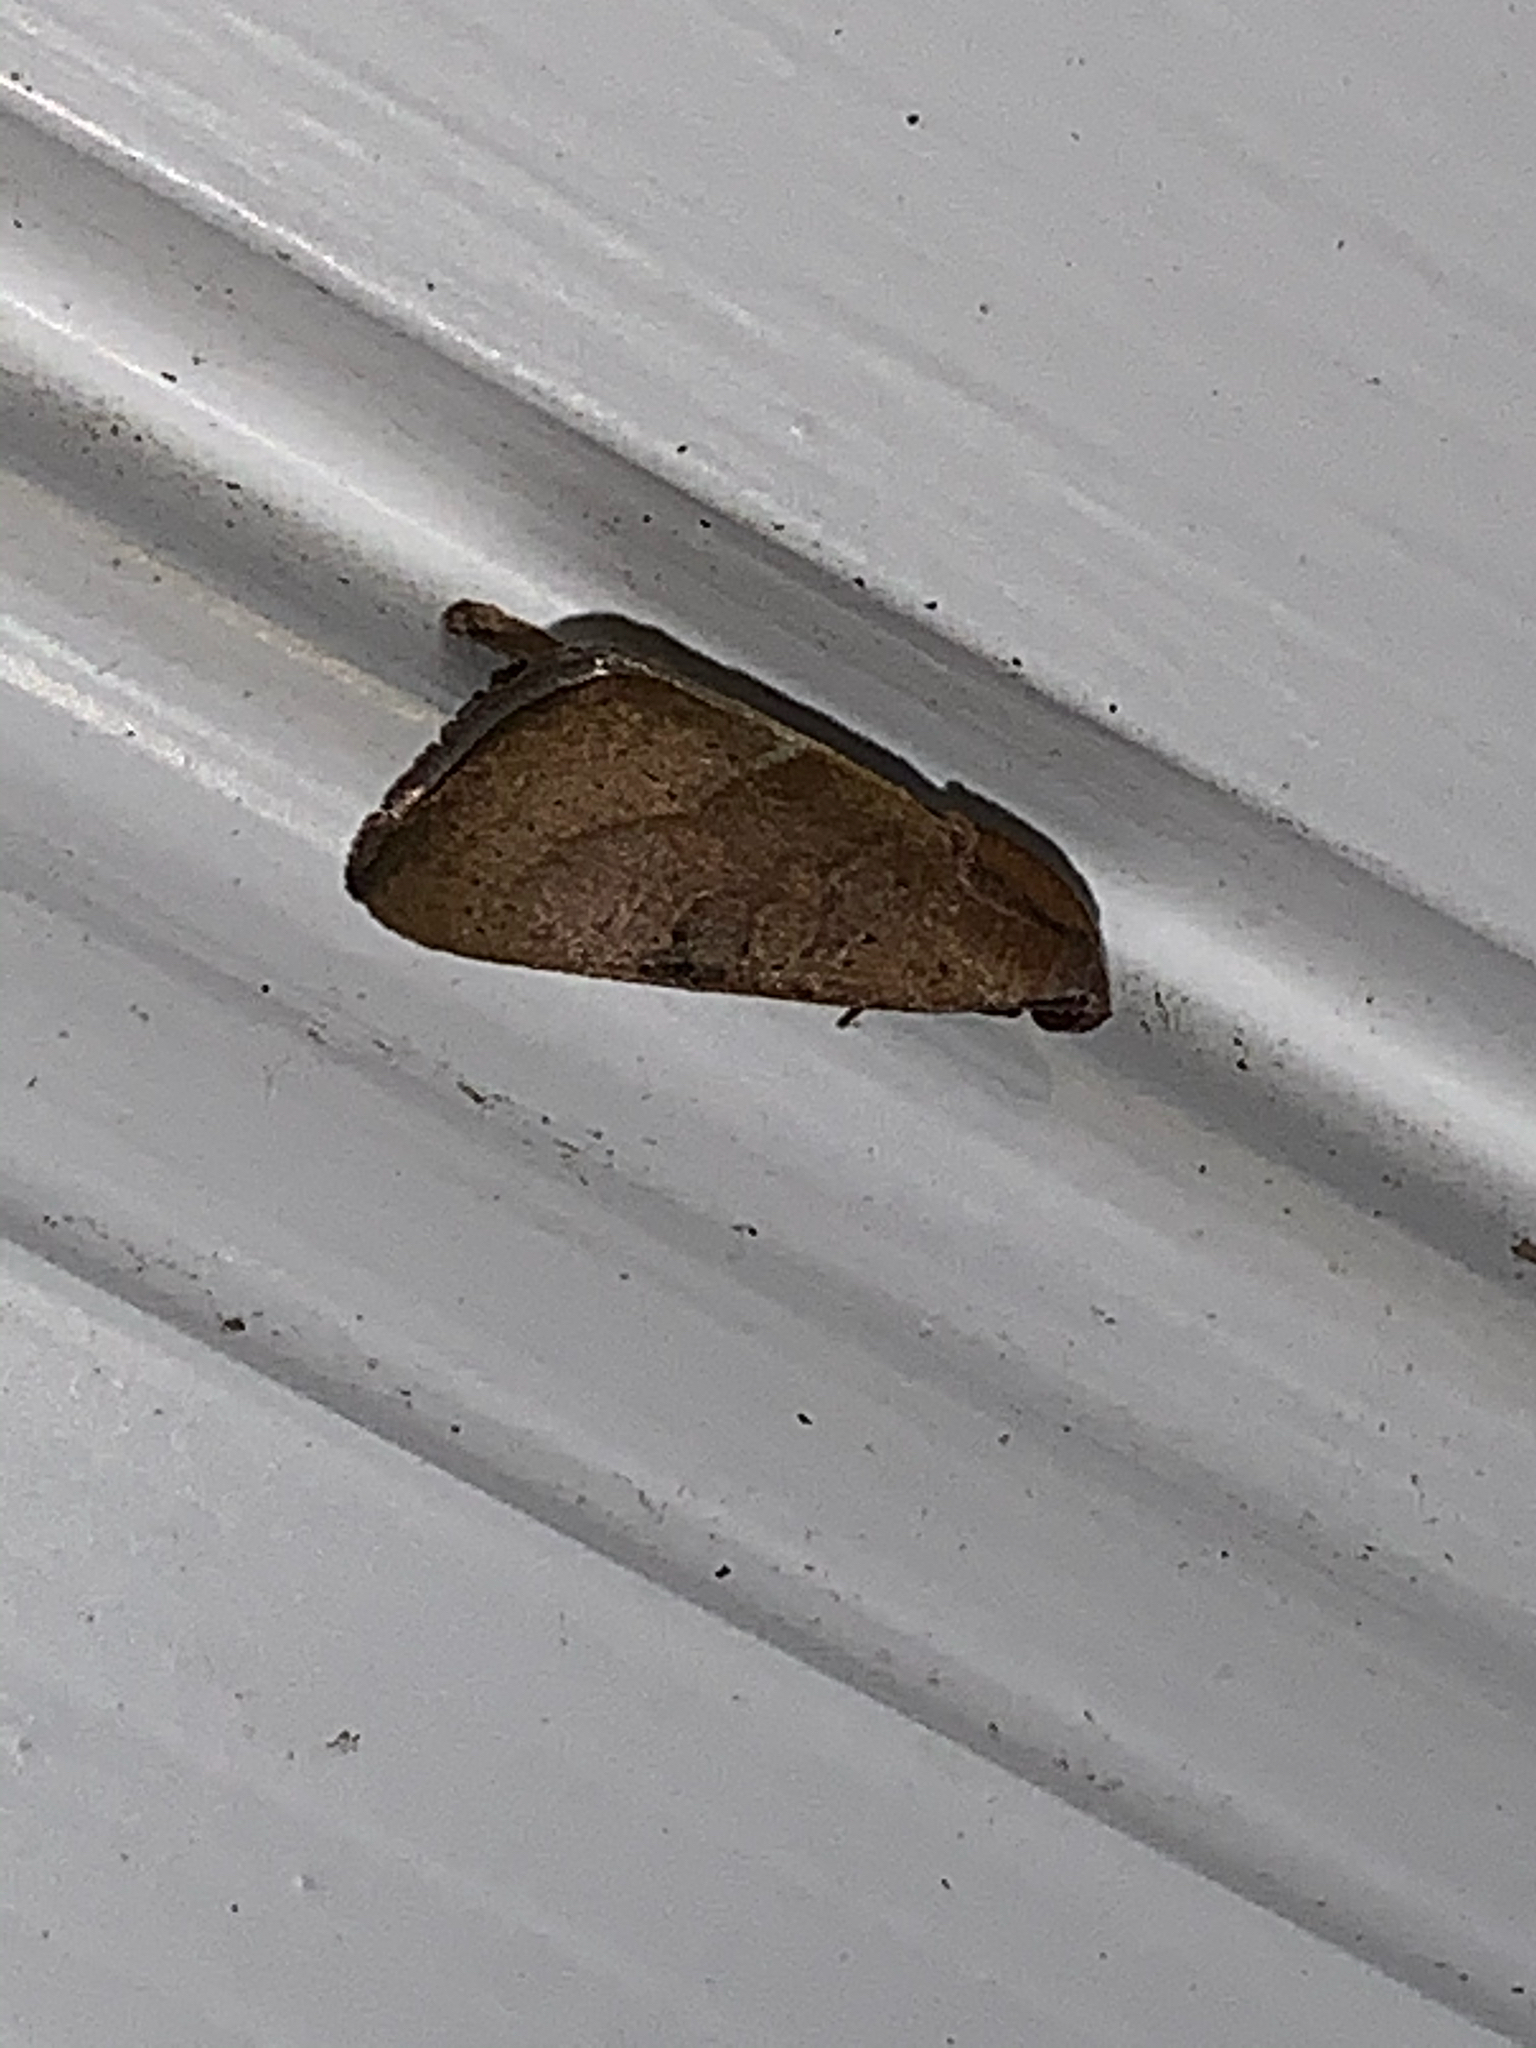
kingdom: Animalia
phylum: Arthropoda
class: Insecta
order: Lepidoptera
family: Noctuidae
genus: Galgula
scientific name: Galgula partita
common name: Wedgeling
